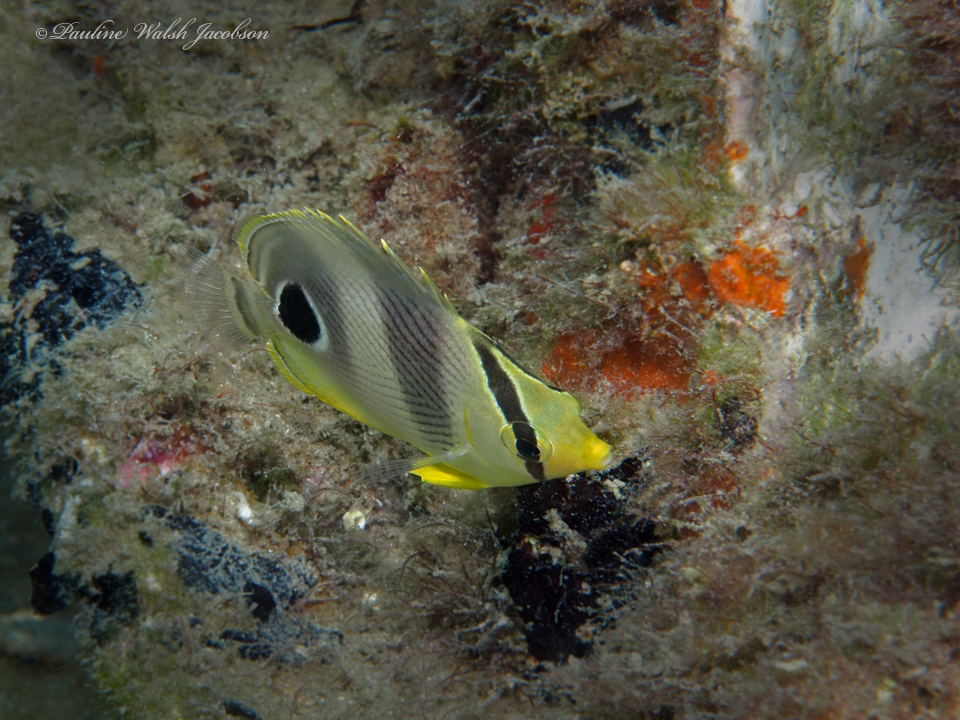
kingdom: Animalia
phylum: Chordata
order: Perciformes
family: Chaetodontidae
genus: Chaetodon
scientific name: Chaetodon capistratus
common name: Kete
